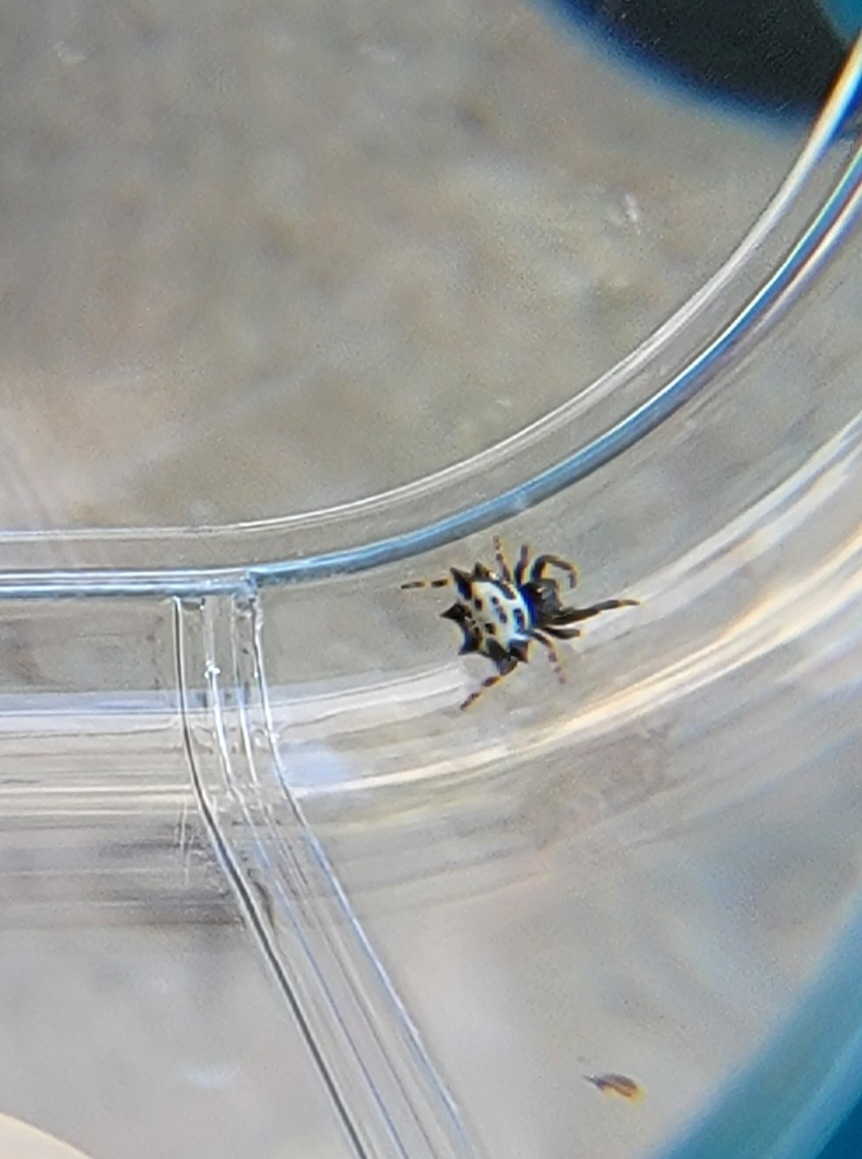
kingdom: Animalia
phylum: Arthropoda
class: Arachnida
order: Araneae
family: Araneidae
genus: Gasteracantha
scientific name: Gasteracantha cancriformis
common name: Orb weavers
